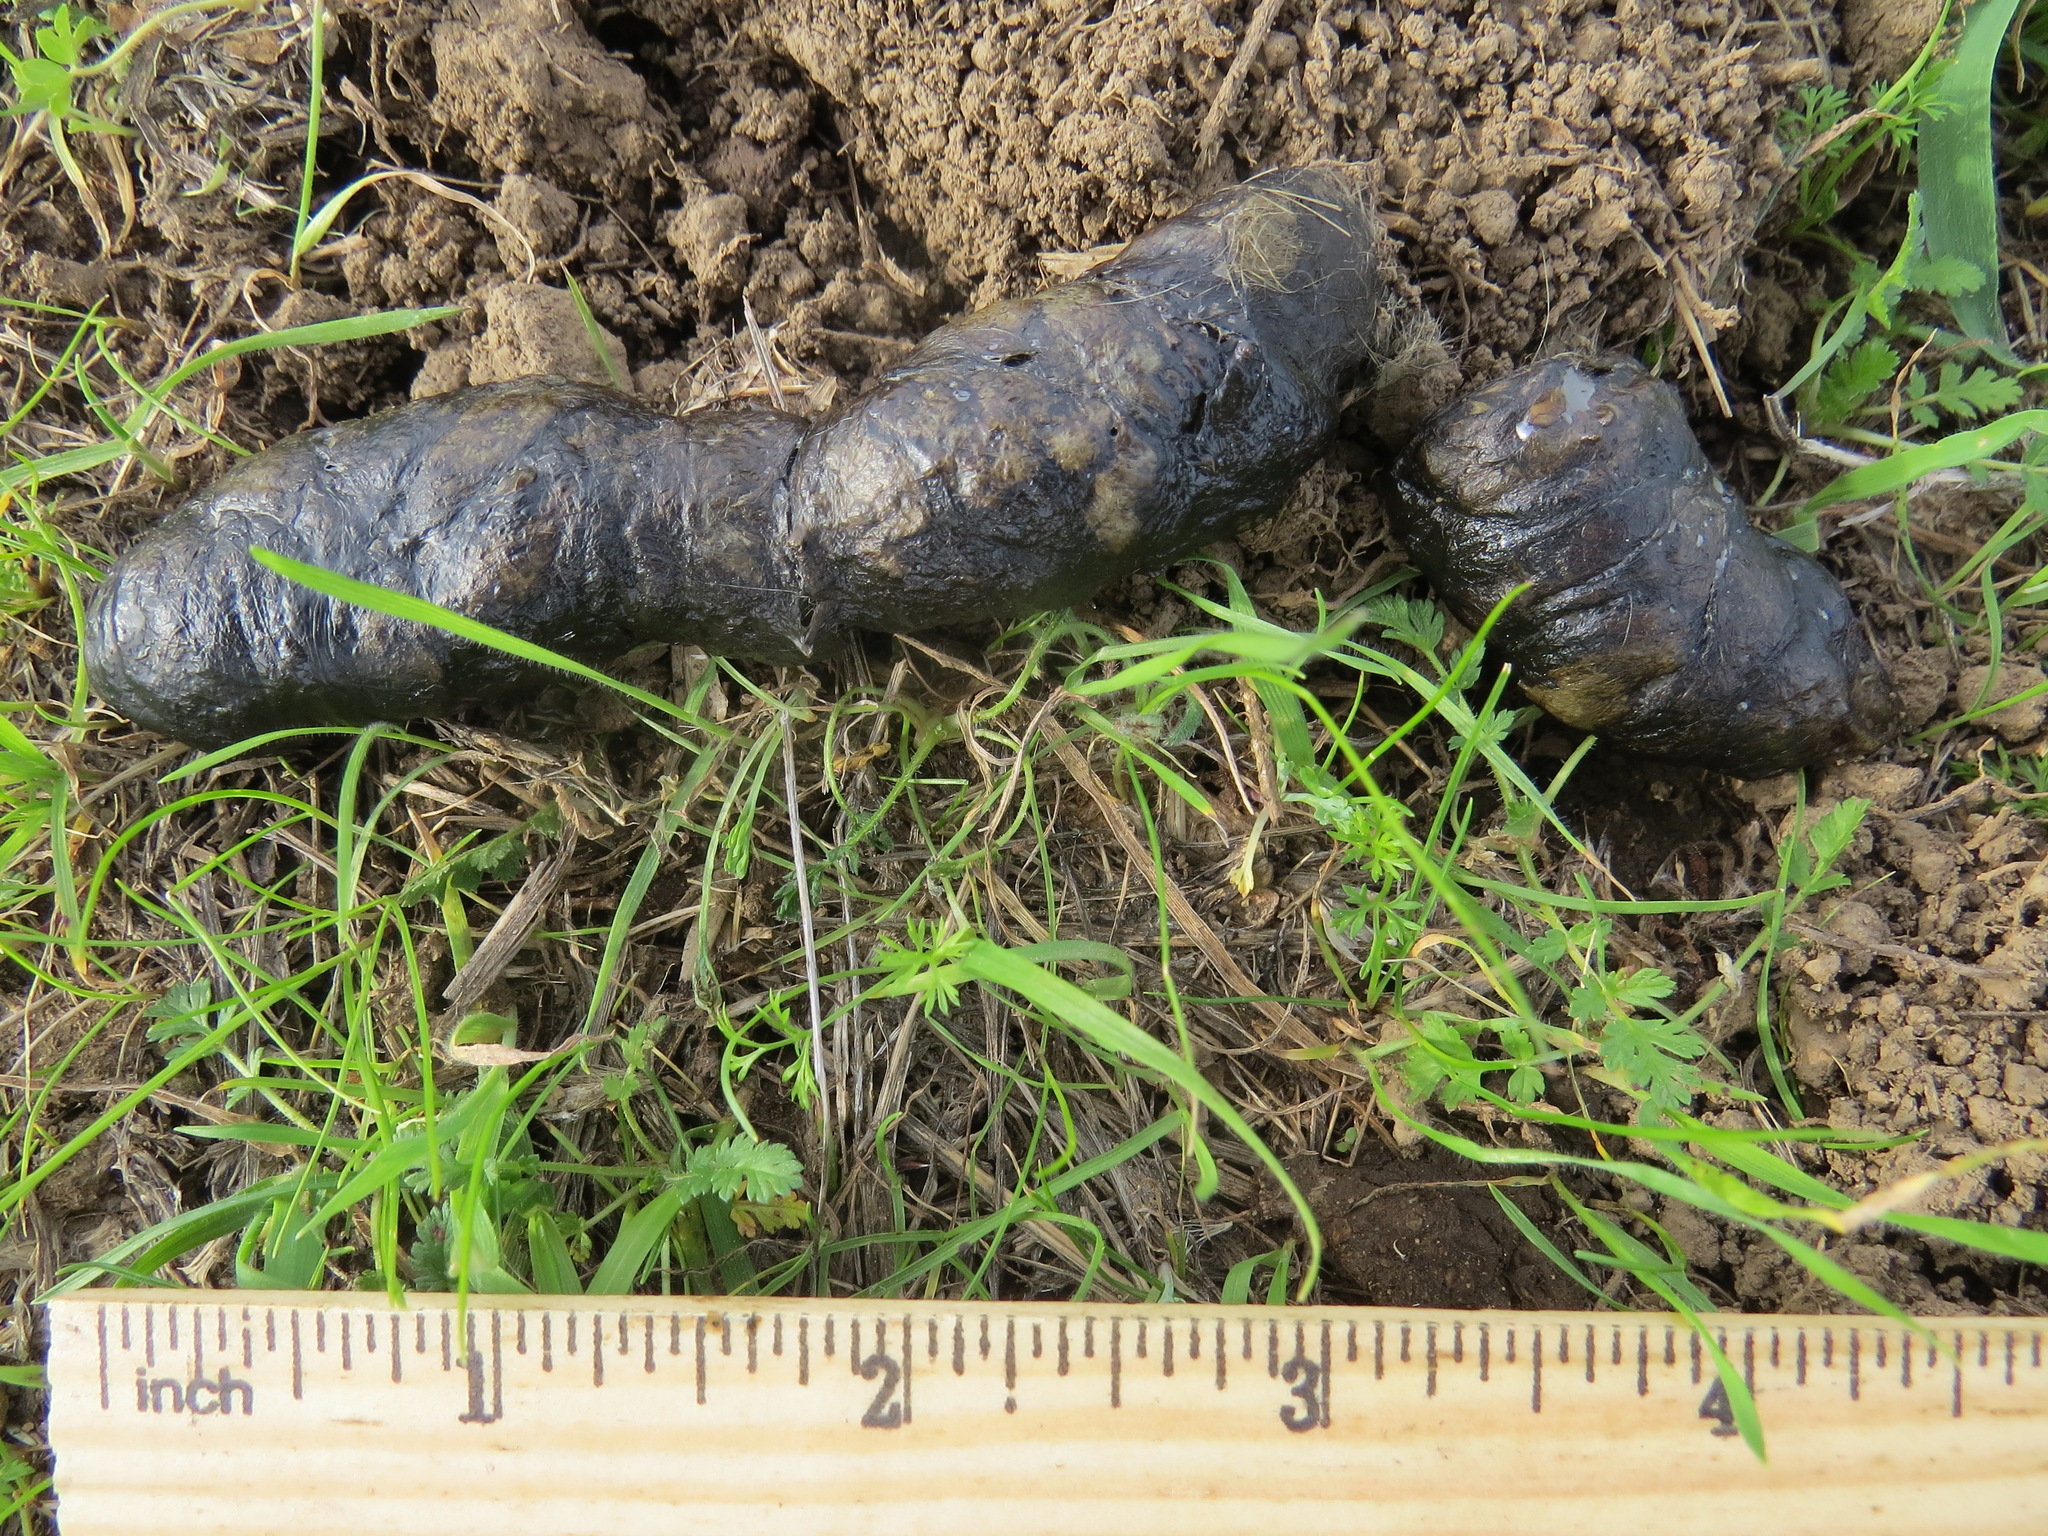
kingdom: Animalia
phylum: Chordata
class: Mammalia
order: Carnivora
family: Felidae
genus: Lynx
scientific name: Lynx rufus
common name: Bobcat
